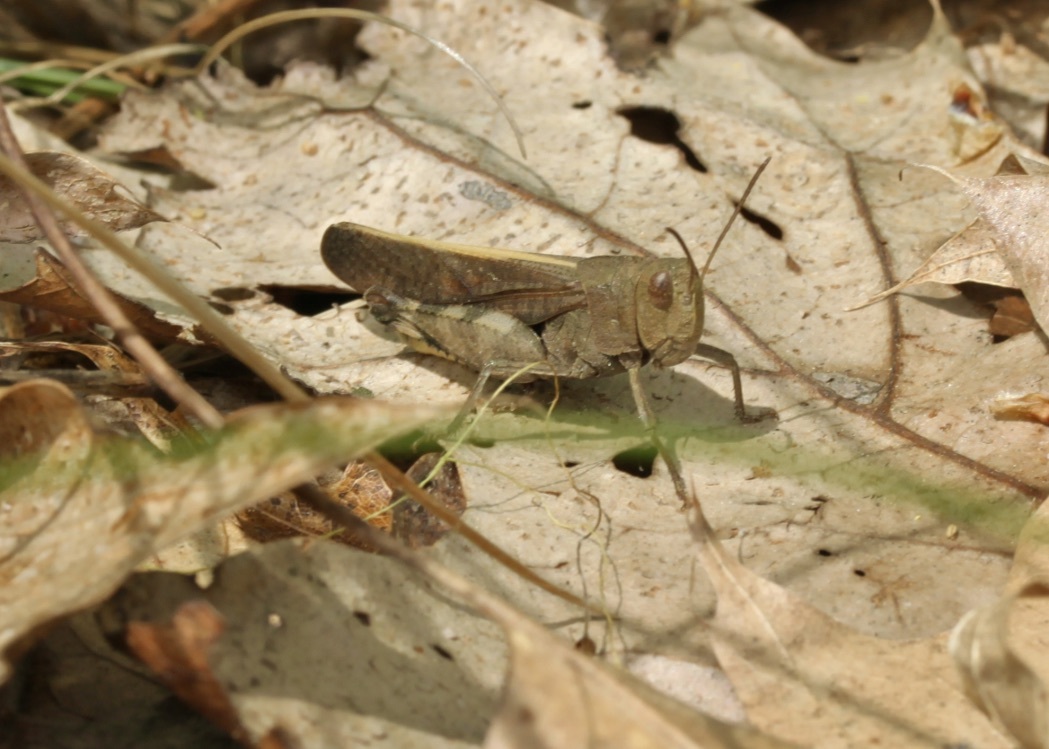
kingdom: Animalia
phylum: Arthropoda
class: Insecta
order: Orthoptera
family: Acrididae
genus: Arphia
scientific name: Arphia sulphurea
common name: Spring yellow-winged locust
